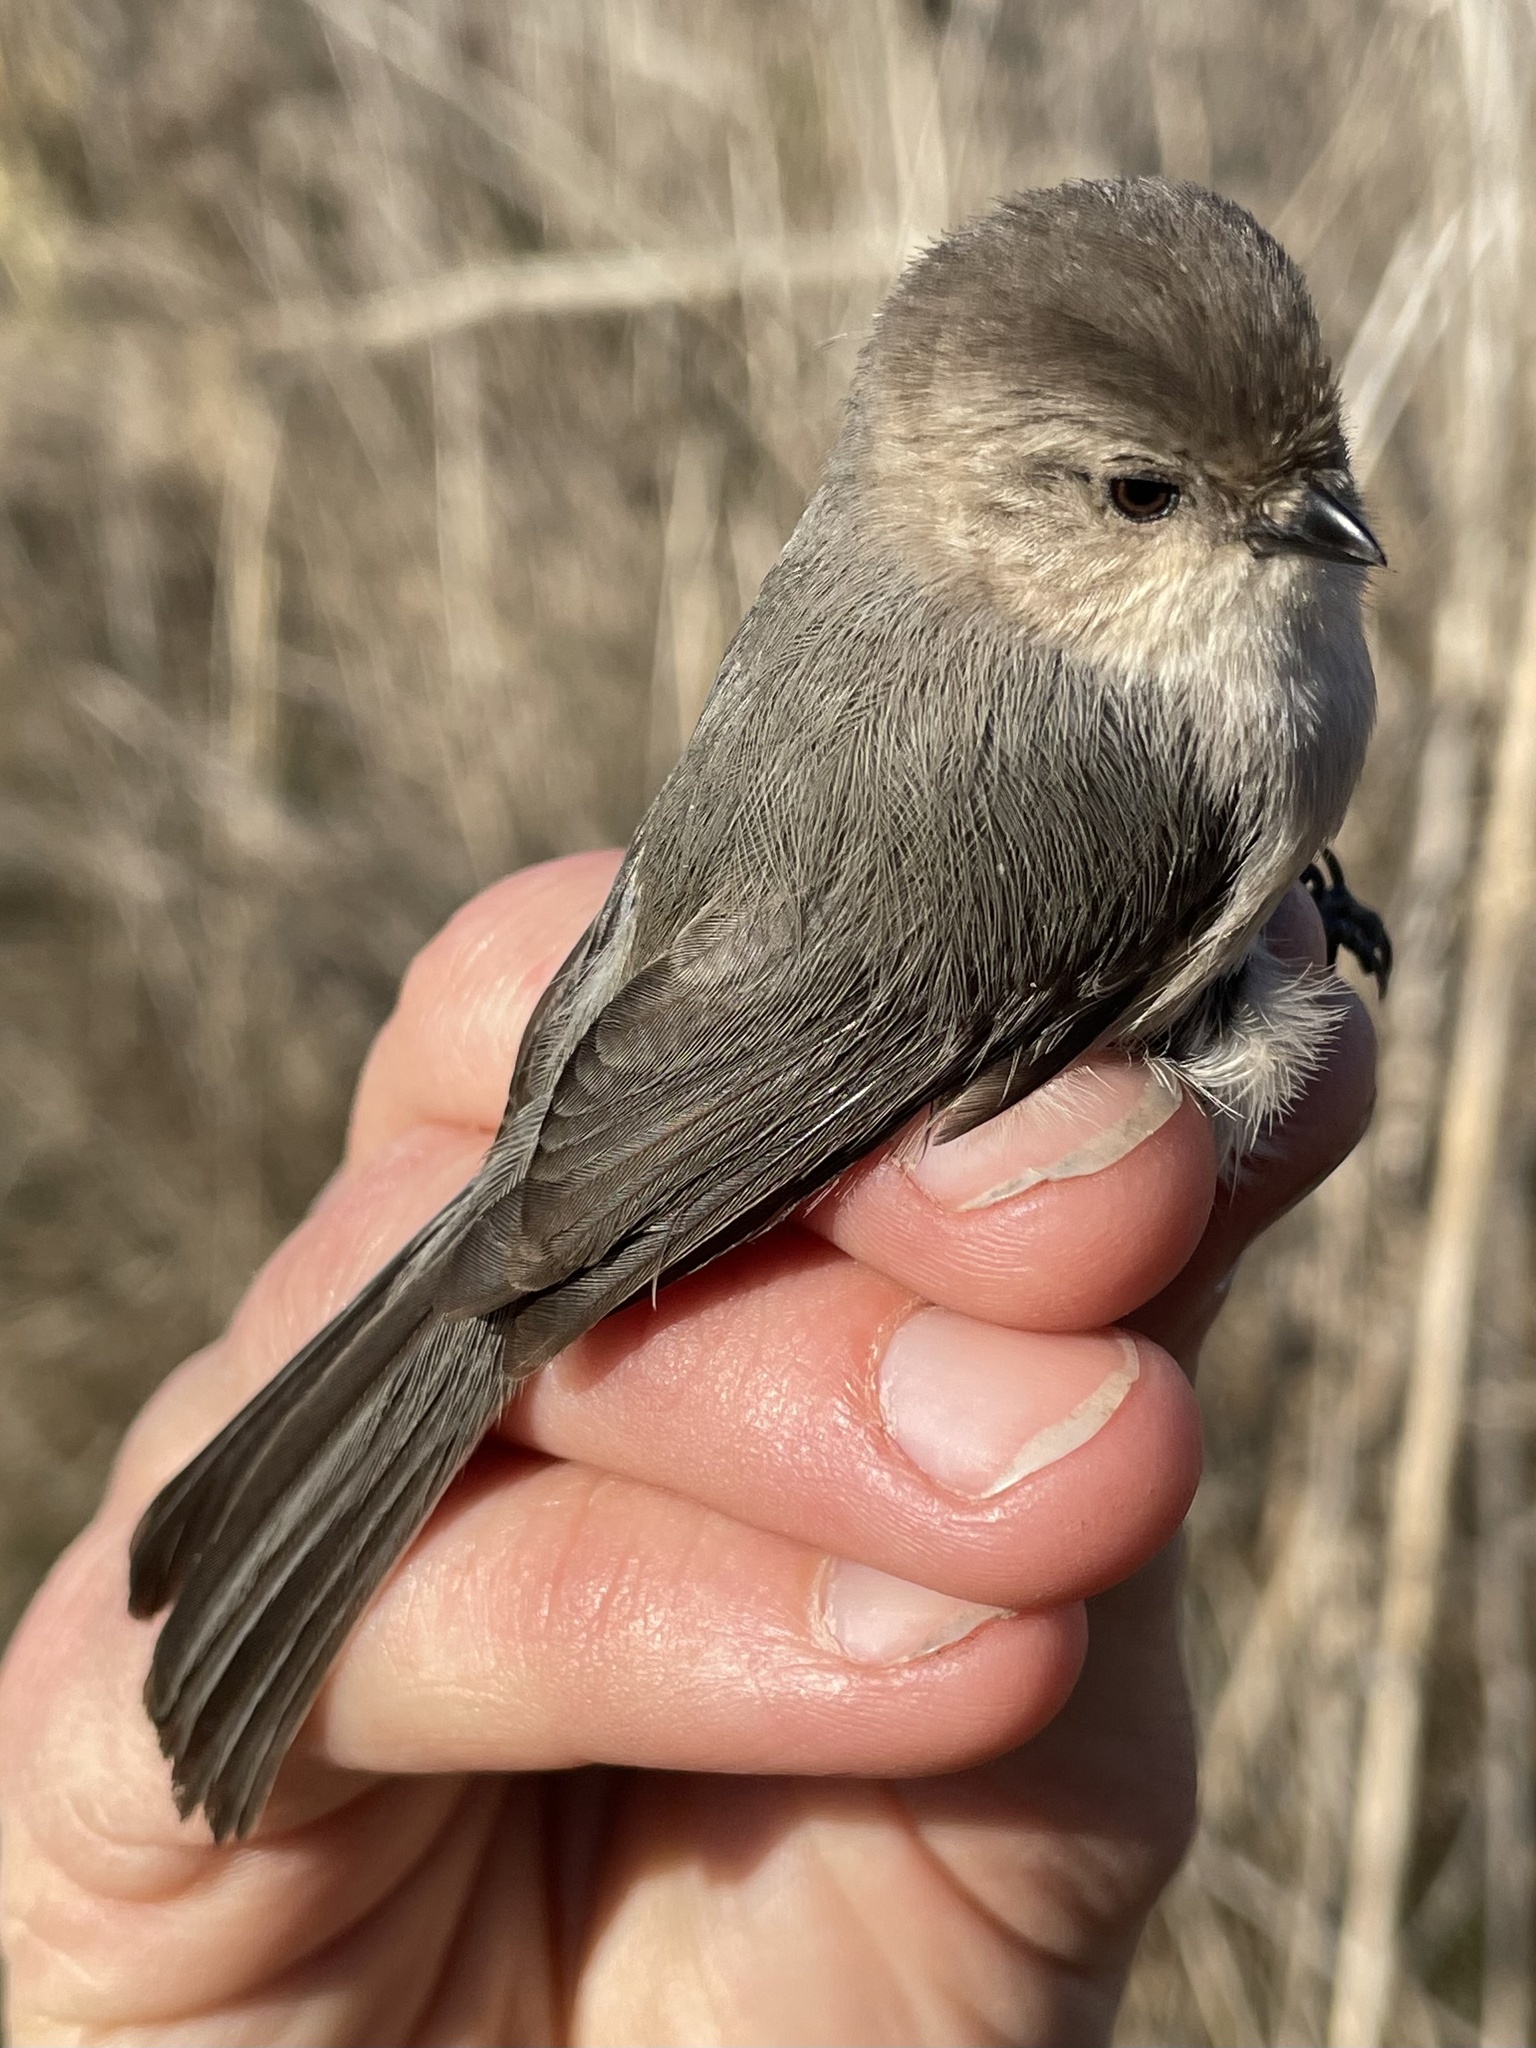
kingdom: Animalia
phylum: Chordata
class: Aves
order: Passeriformes
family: Aegithalidae
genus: Psaltriparus
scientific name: Psaltriparus minimus
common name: American bushtit
